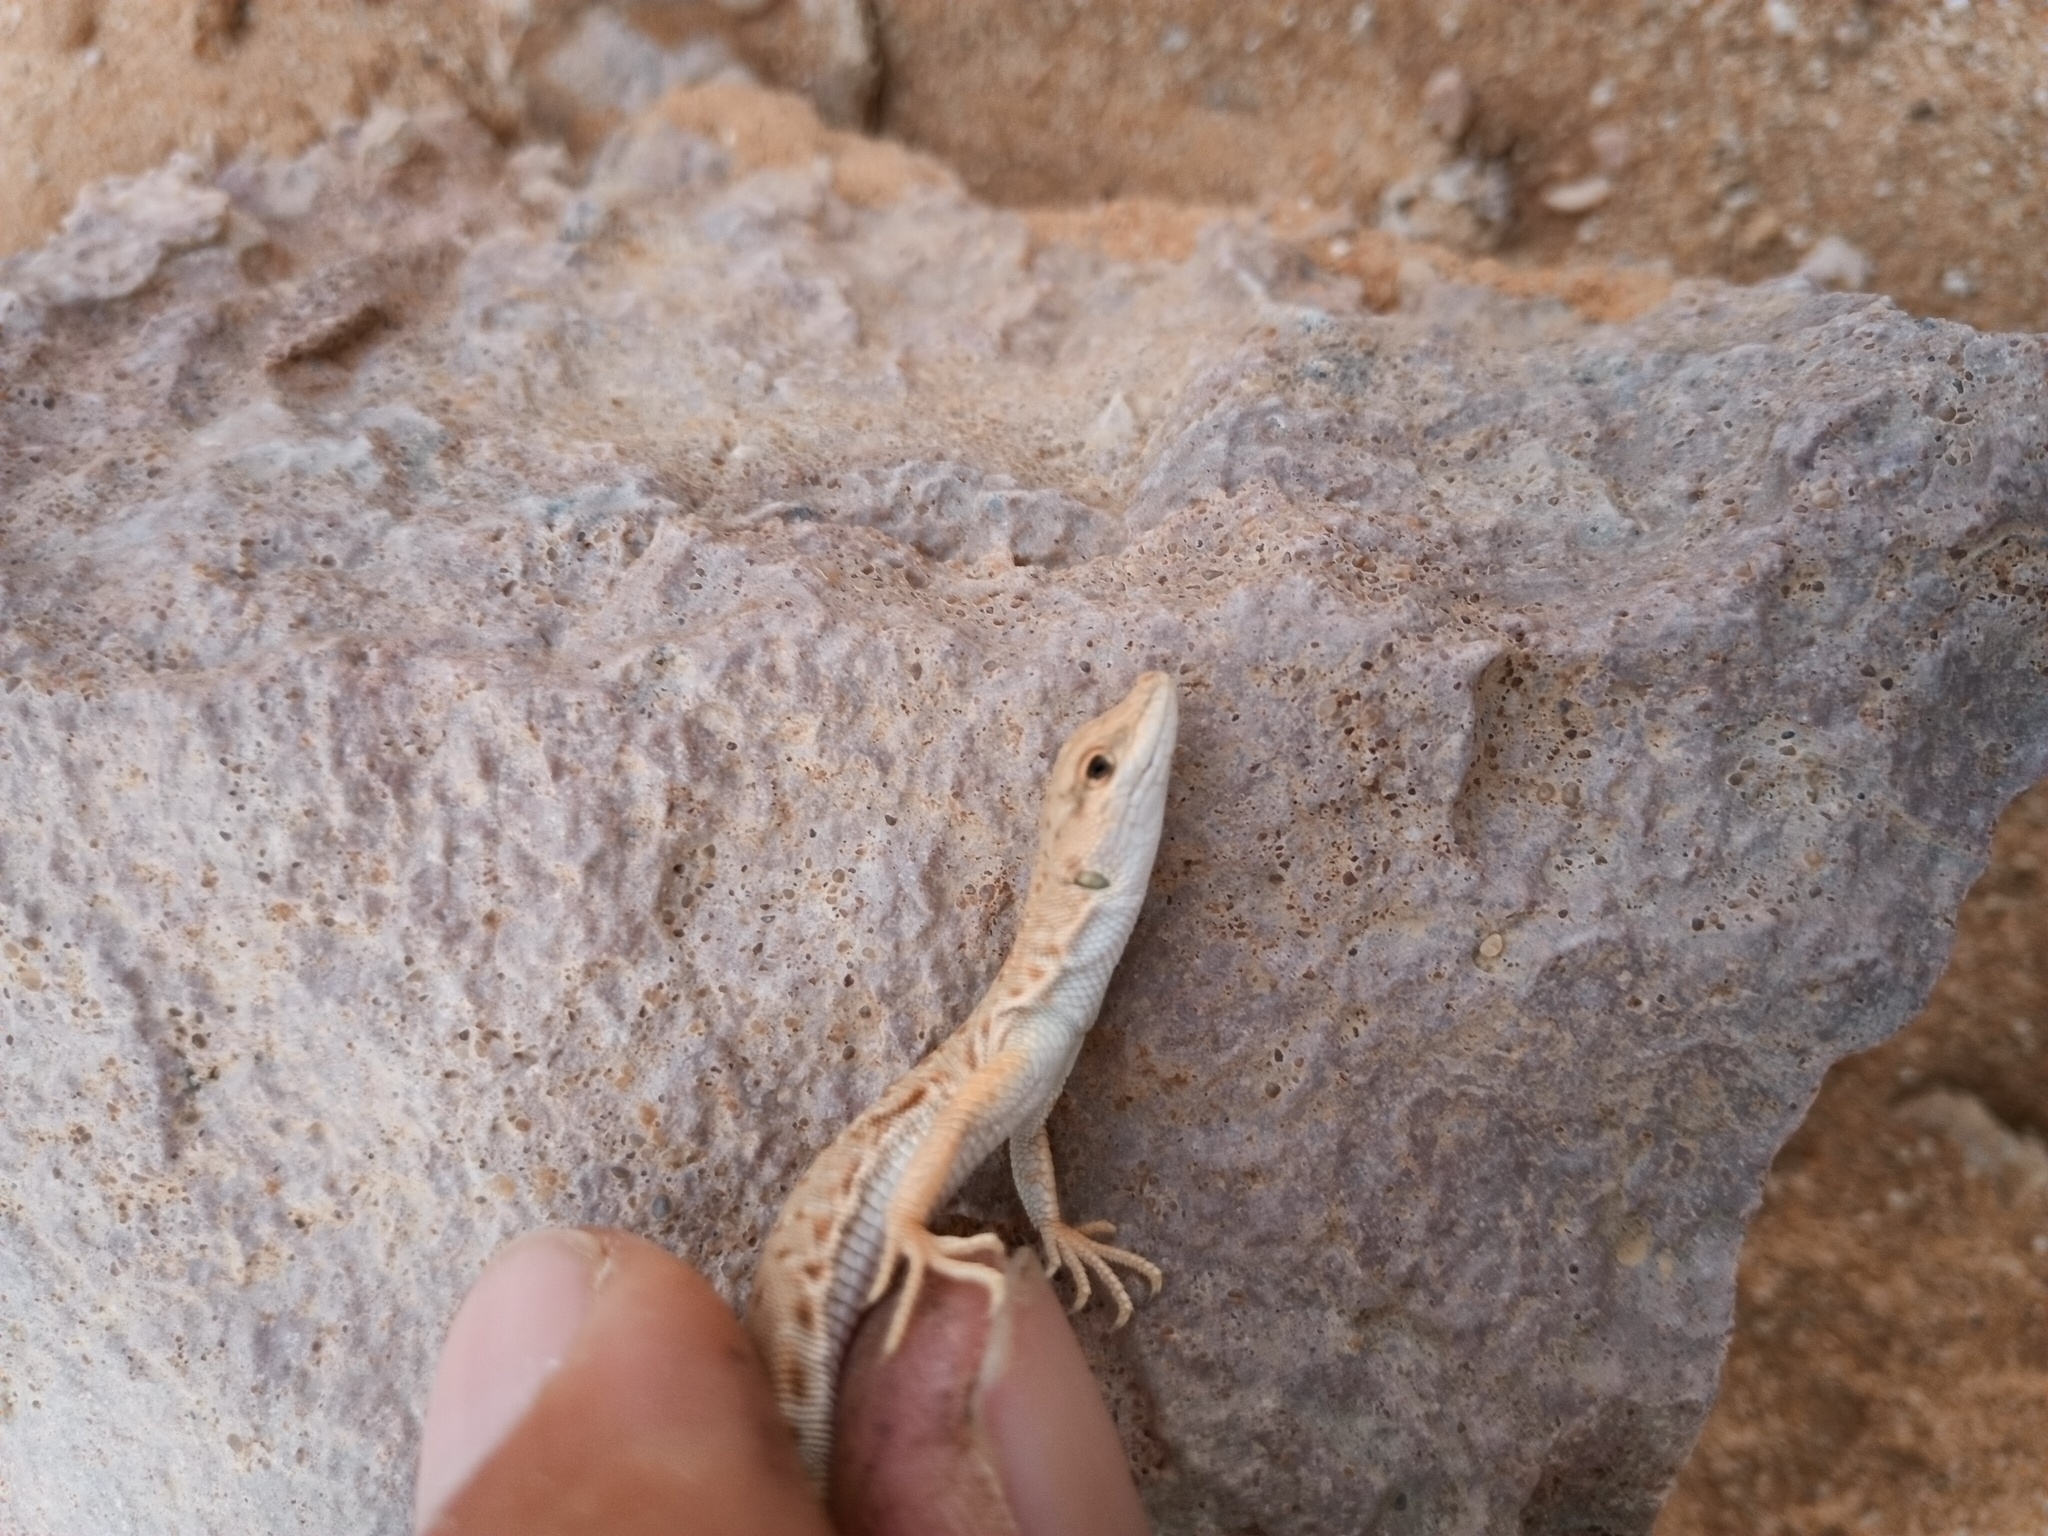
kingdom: Animalia
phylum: Chordata
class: Squamata
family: Lacertidae
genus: Mesalina
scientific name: Mesalina brevirostris
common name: Blanford's short-nosed desert lizard
